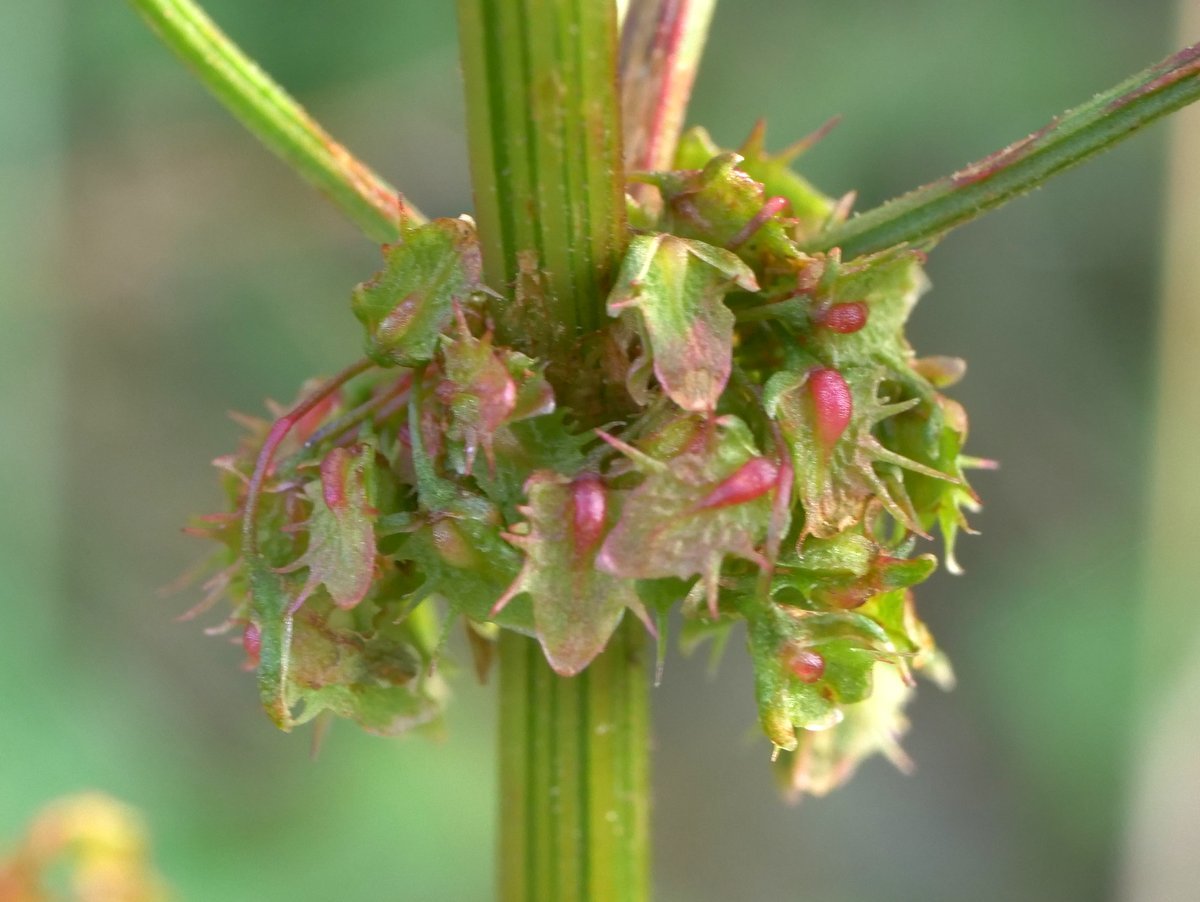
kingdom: Plantae
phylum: Tracheophyta
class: Magnoliopsida
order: Caryophyllales
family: Polygonaceae
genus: Rumex
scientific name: Rumex obtusifolius
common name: Bitter dock
